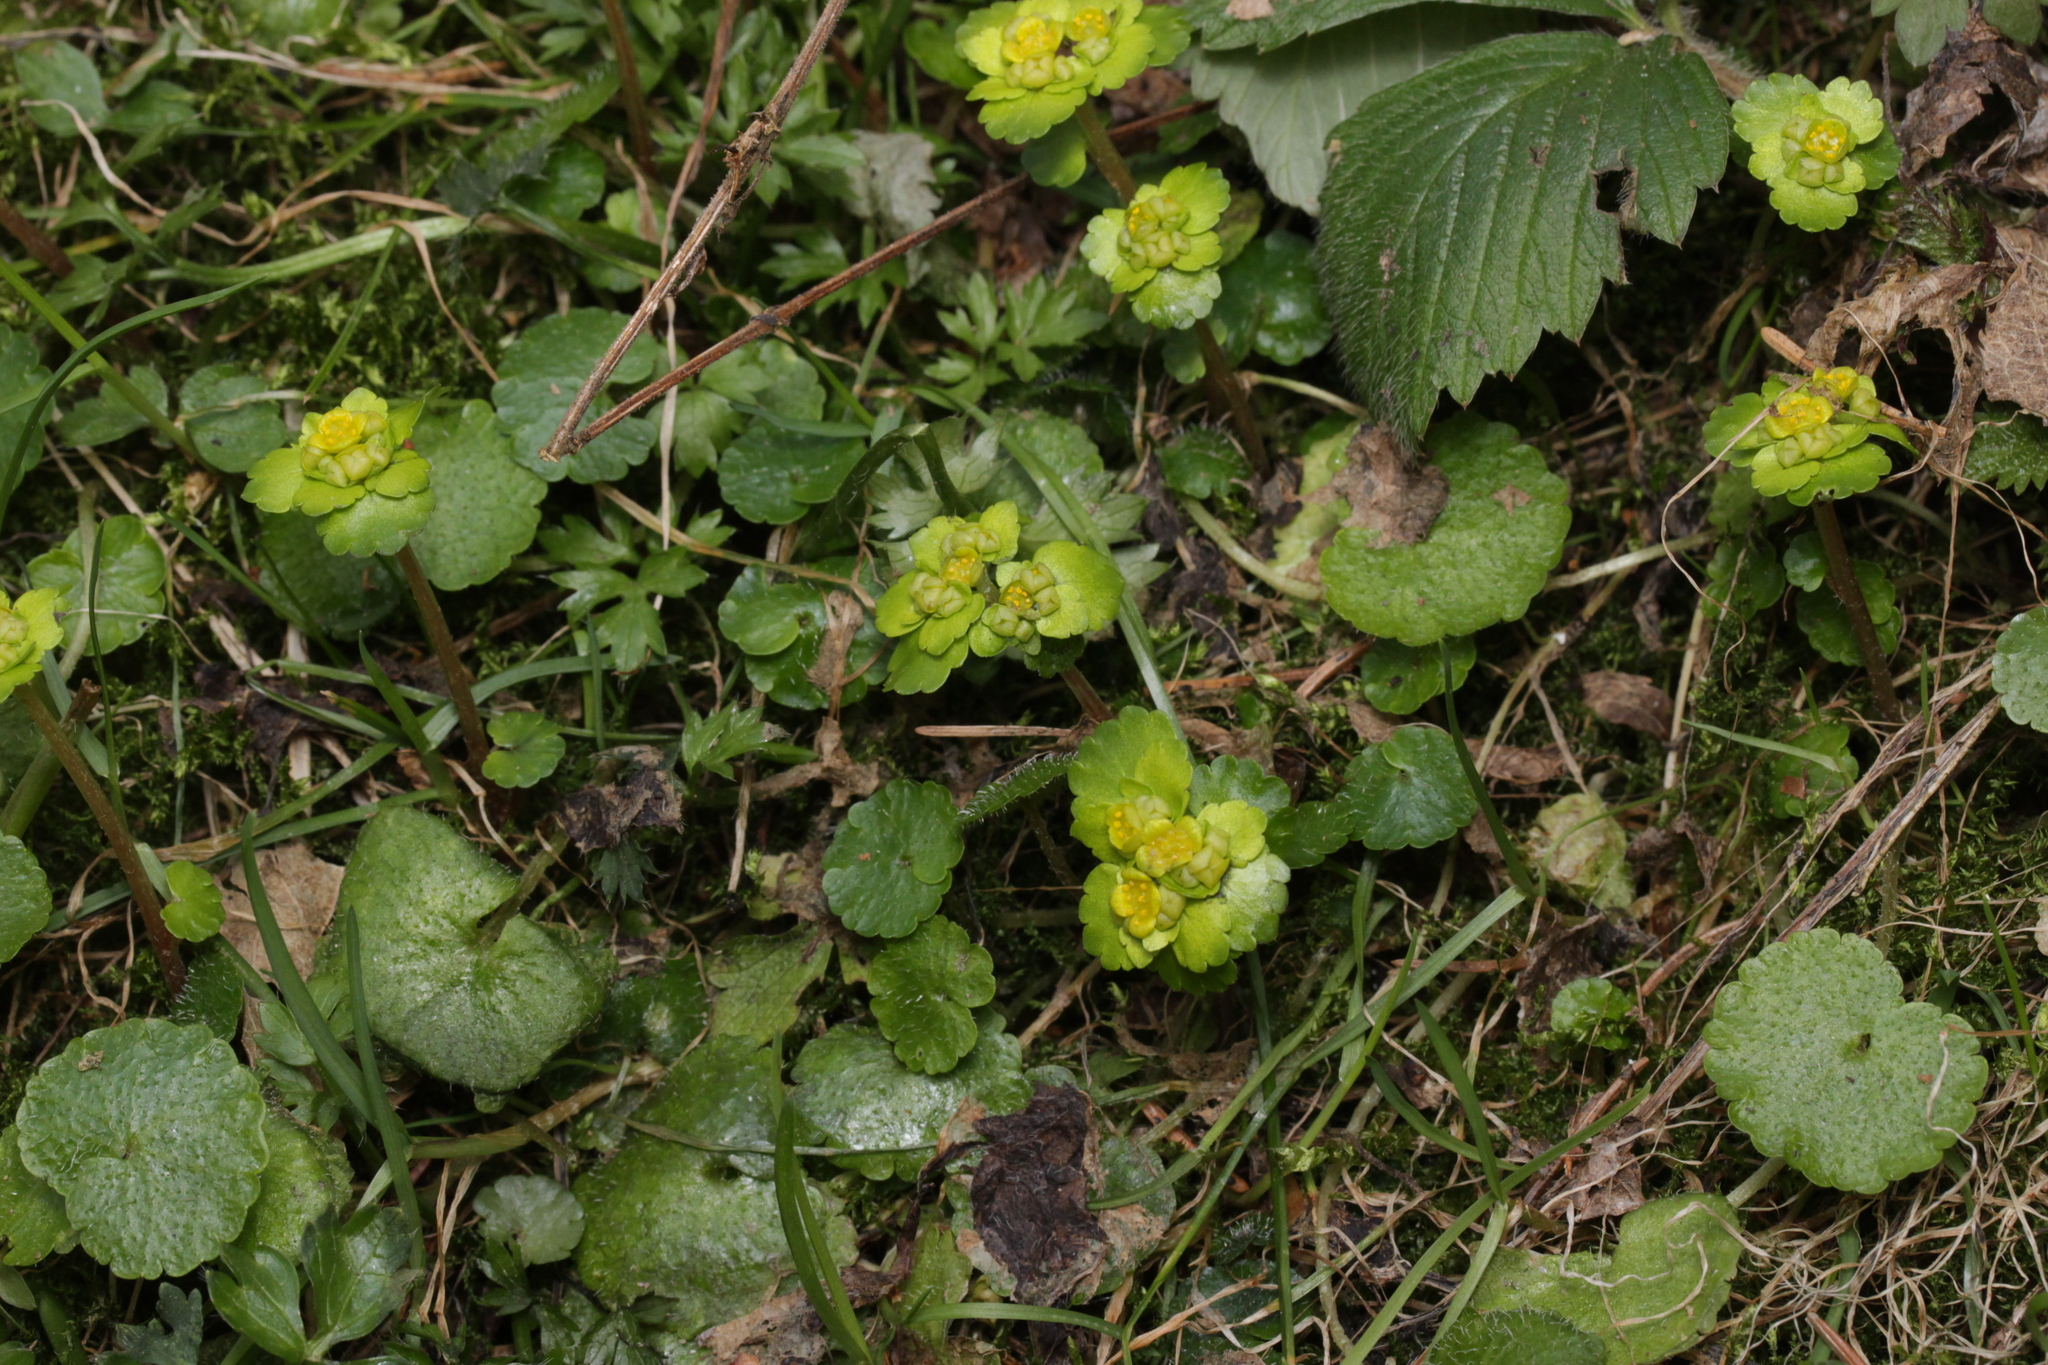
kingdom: Plantae
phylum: Tracheophyta
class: Magnoliopsida
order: Saxifragales
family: Saxifragaceae
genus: Chrysosplenium
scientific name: Chrysosplenium alternifolium
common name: Alternate-leaved golden-saxifrage
